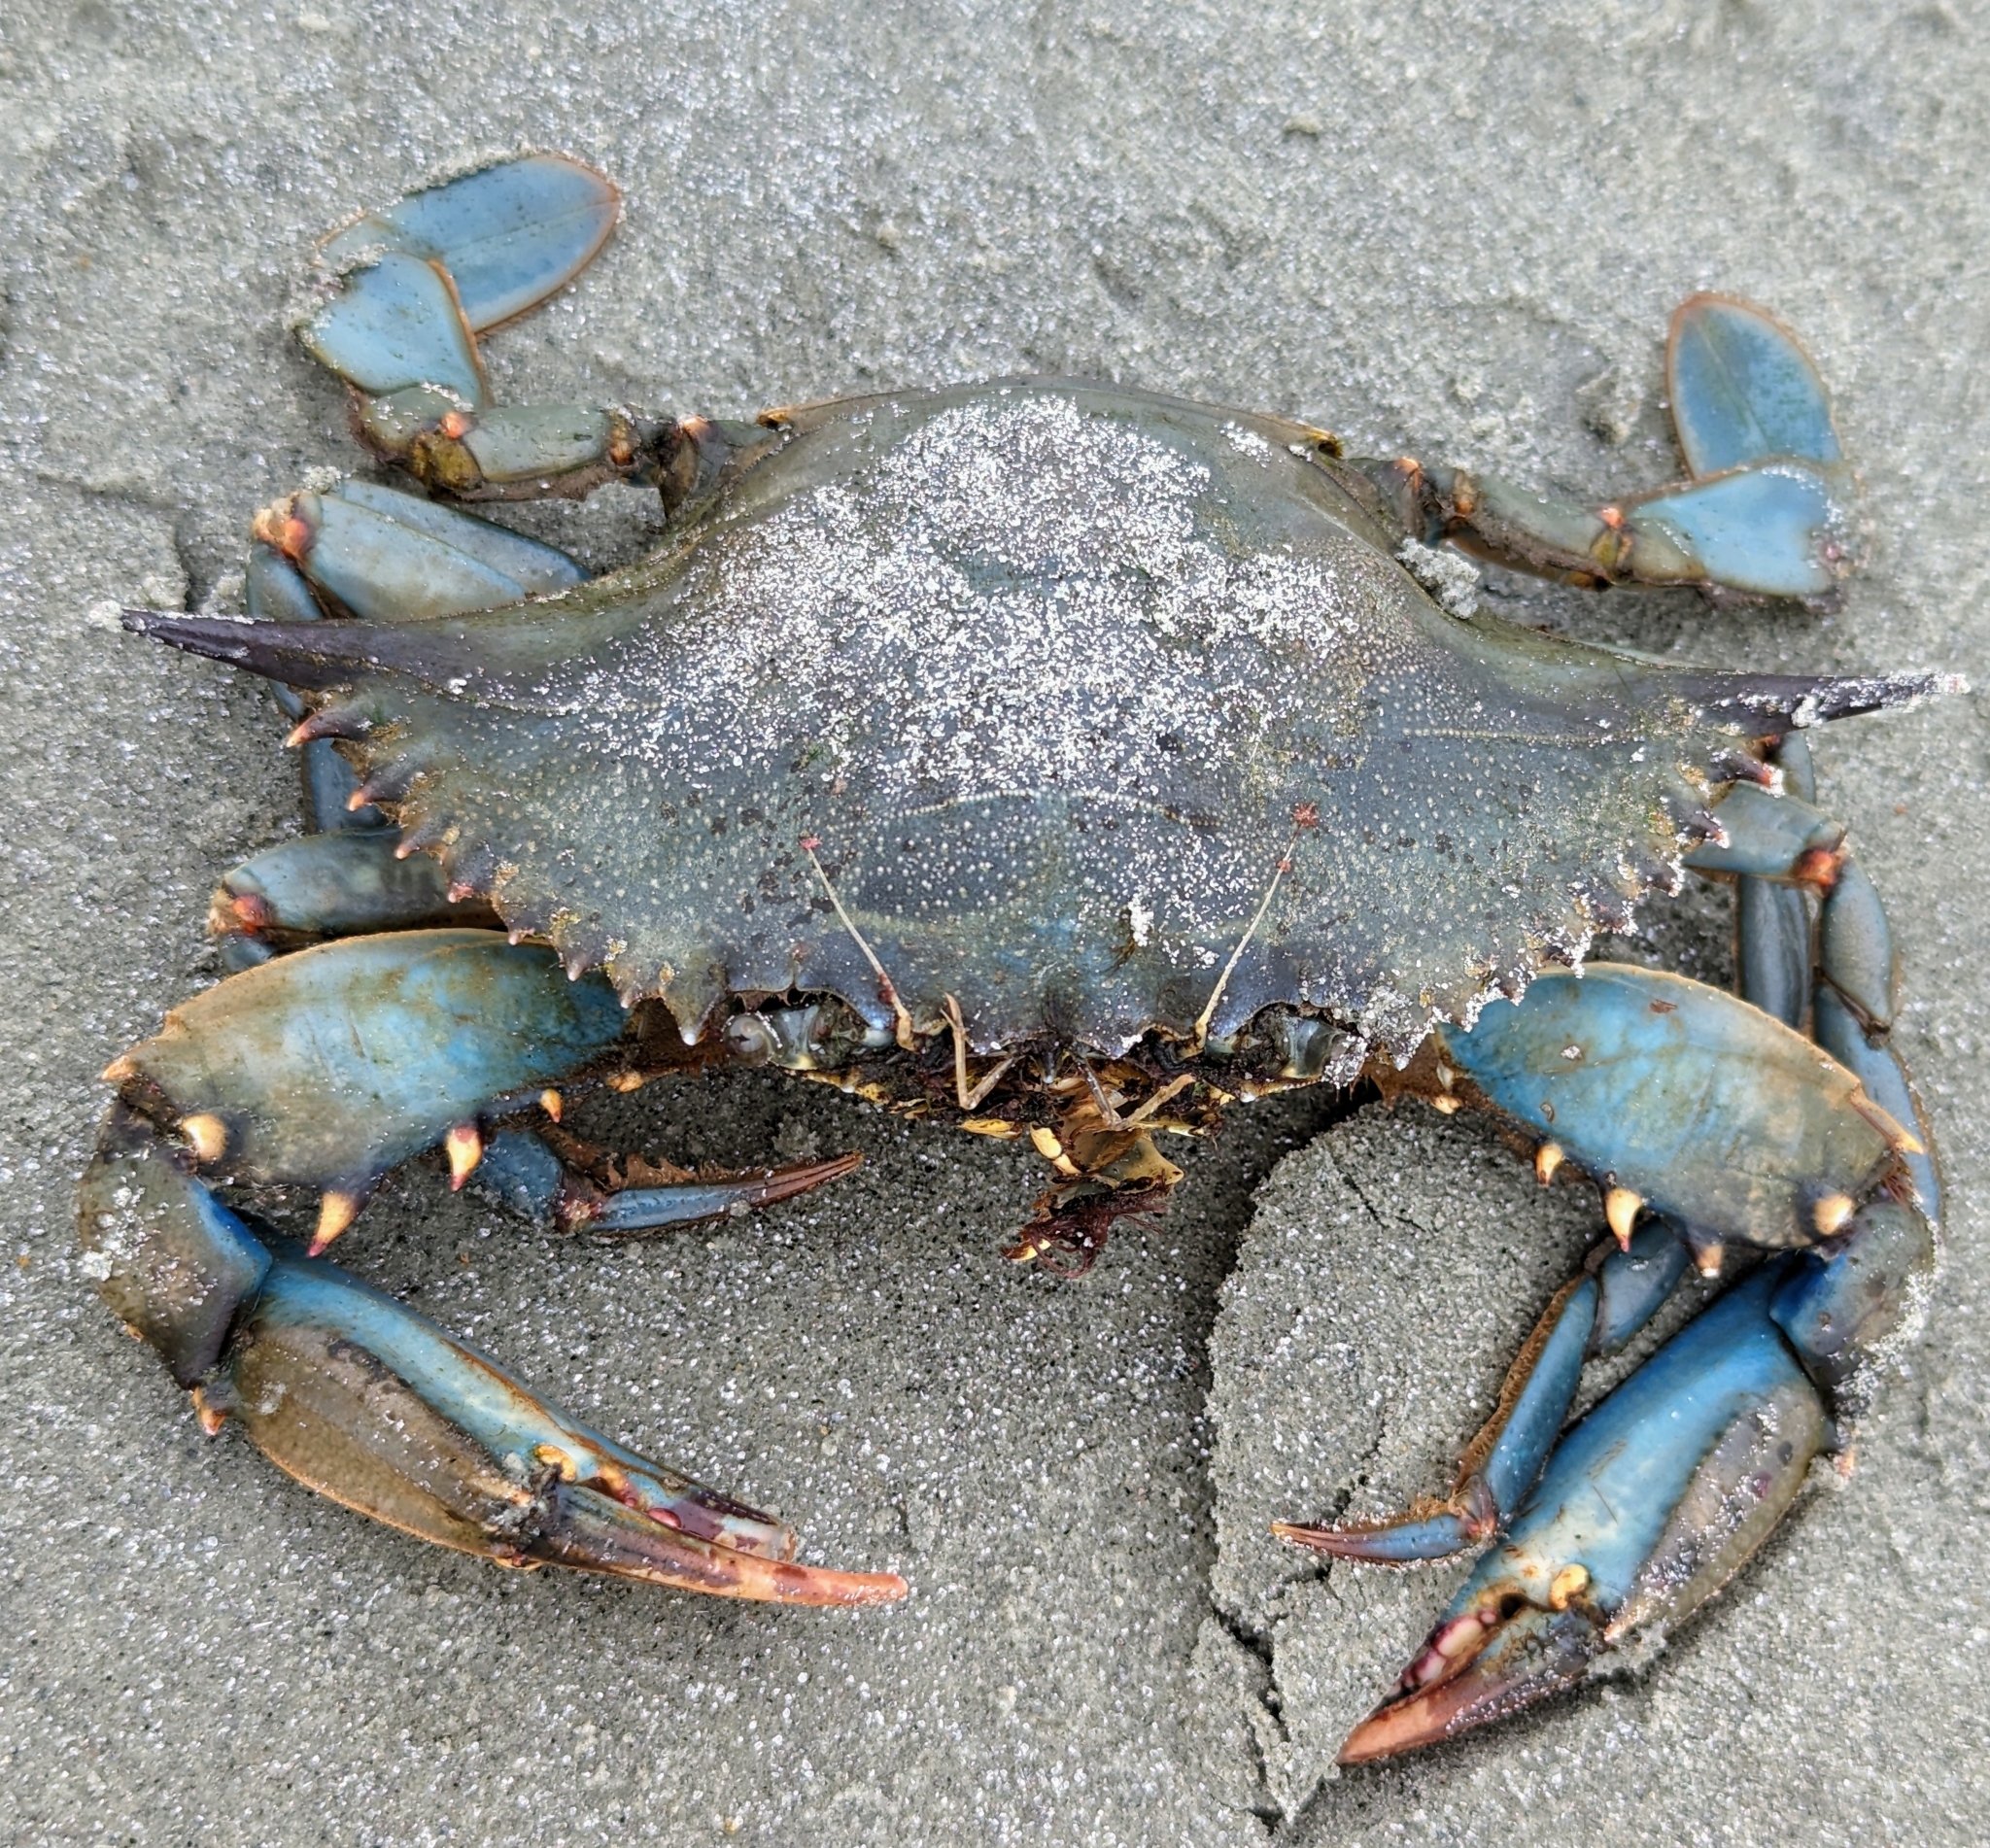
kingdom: Animalia
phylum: Arthropoda
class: Malacostraca
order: Decapoda
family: Portunidae
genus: Callinectes
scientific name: Callinectes sapidus
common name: Blue crab
